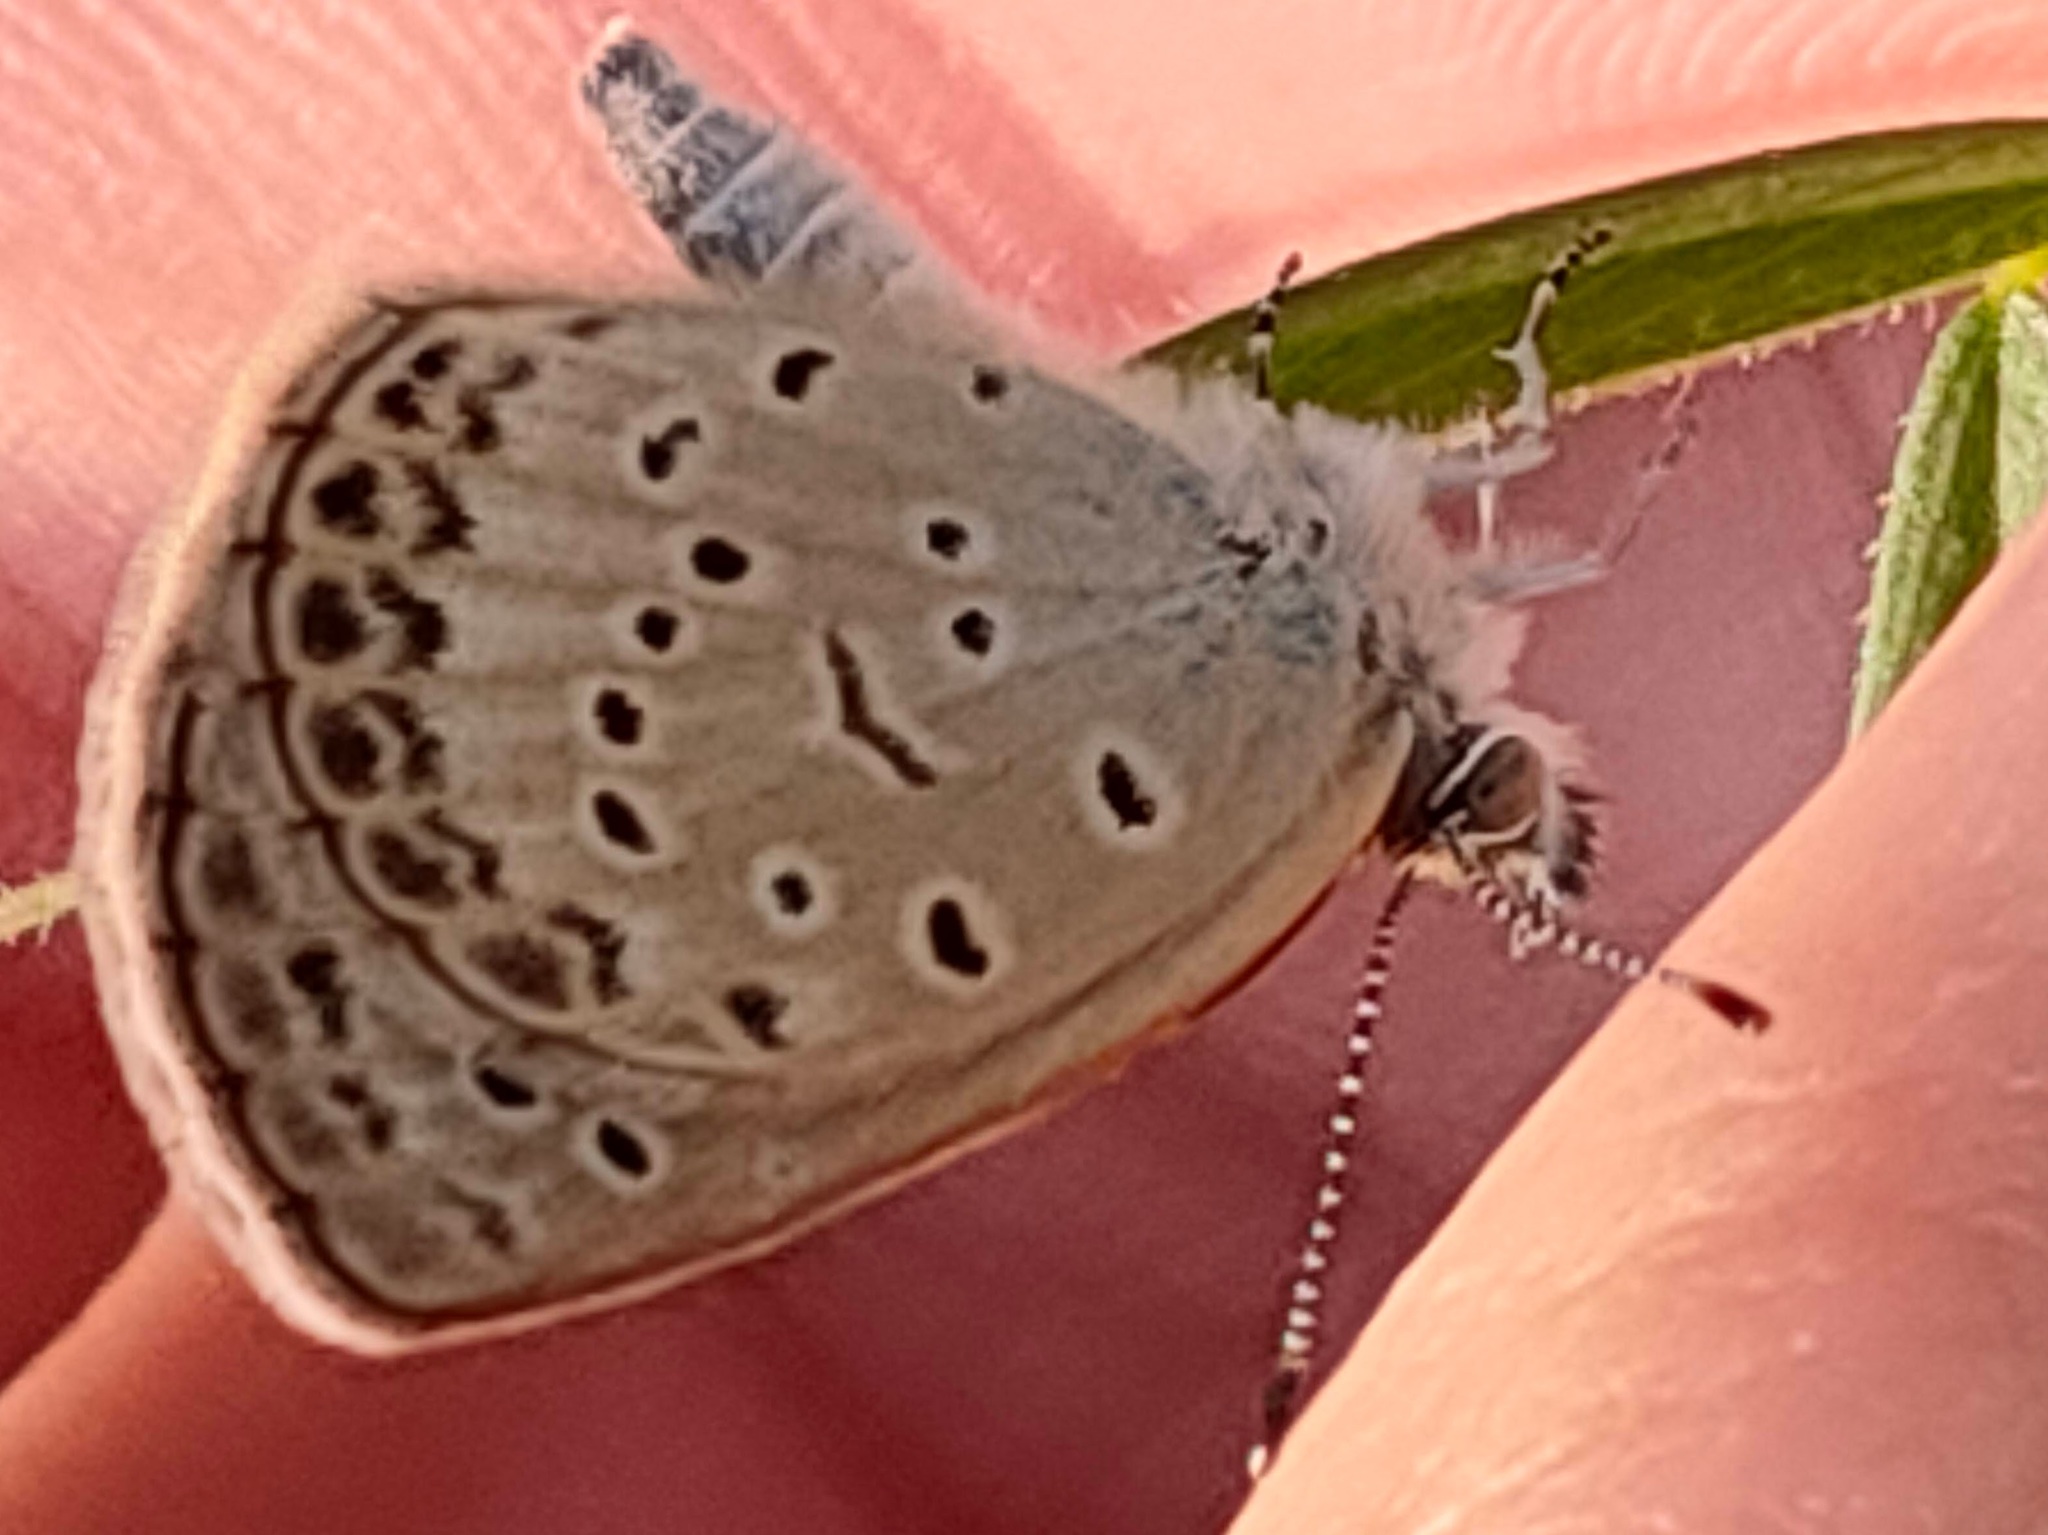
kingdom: Animalia
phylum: Arthropoda
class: Insecta
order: Lepidoptera
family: Lycaenidae
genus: Pseudozizeeria
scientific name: Pseudozizeeria maha
